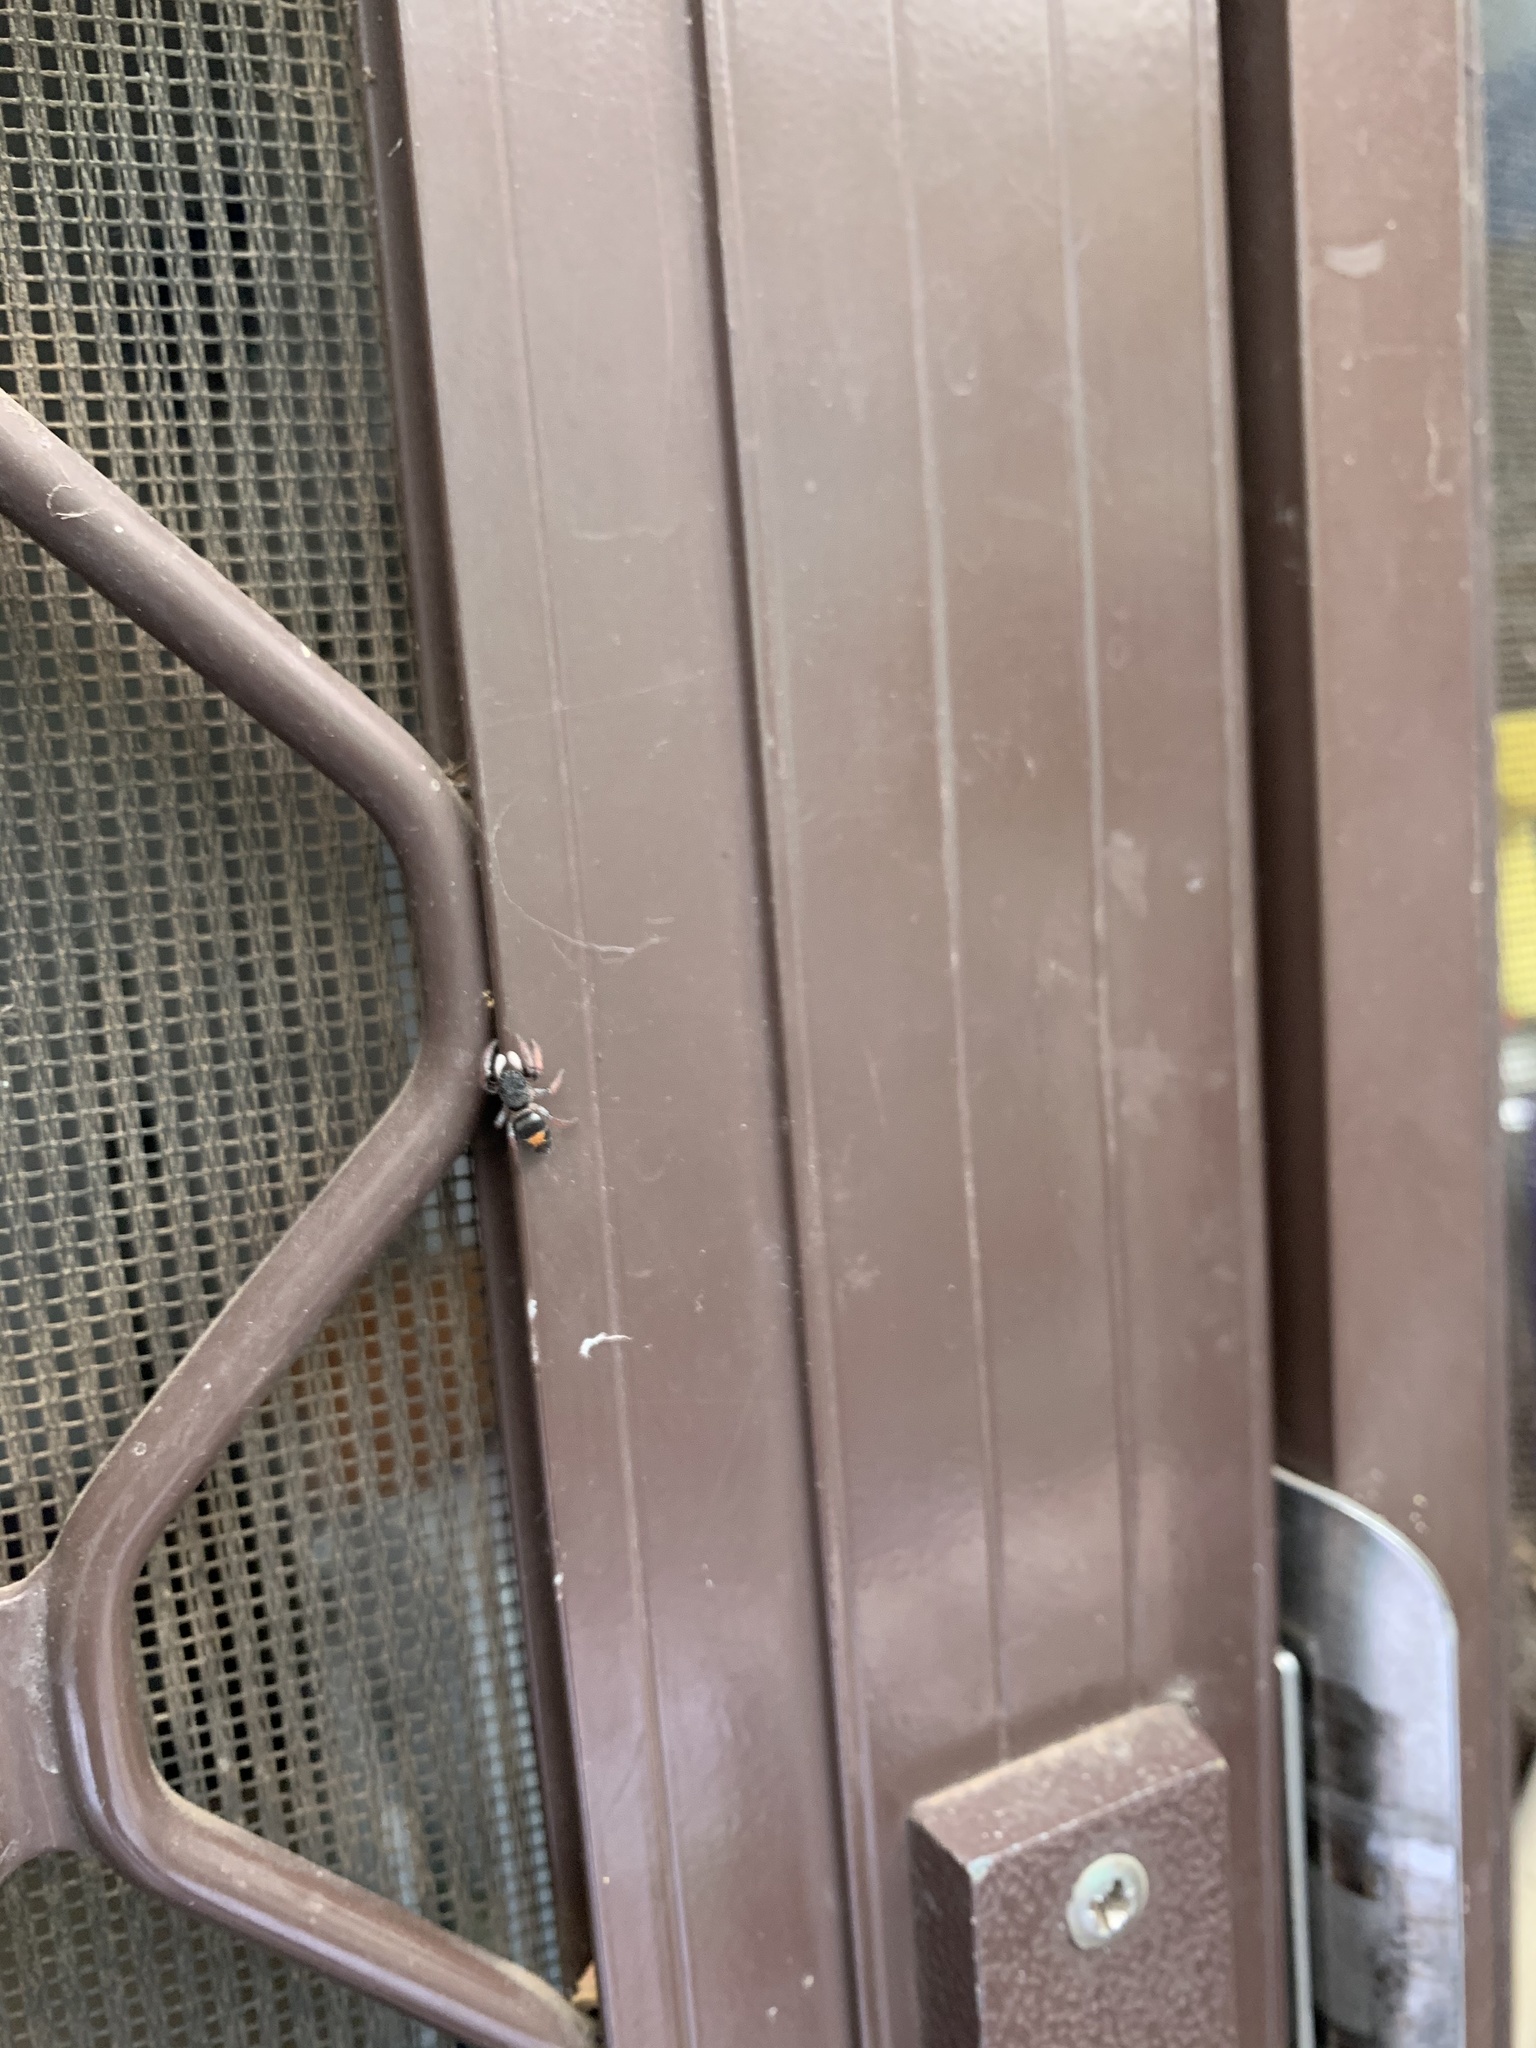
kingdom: Animalia
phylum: Arthropoda
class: Arachnida
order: Araneae
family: Salticidae
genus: Apricia
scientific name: Apricia jovialis
